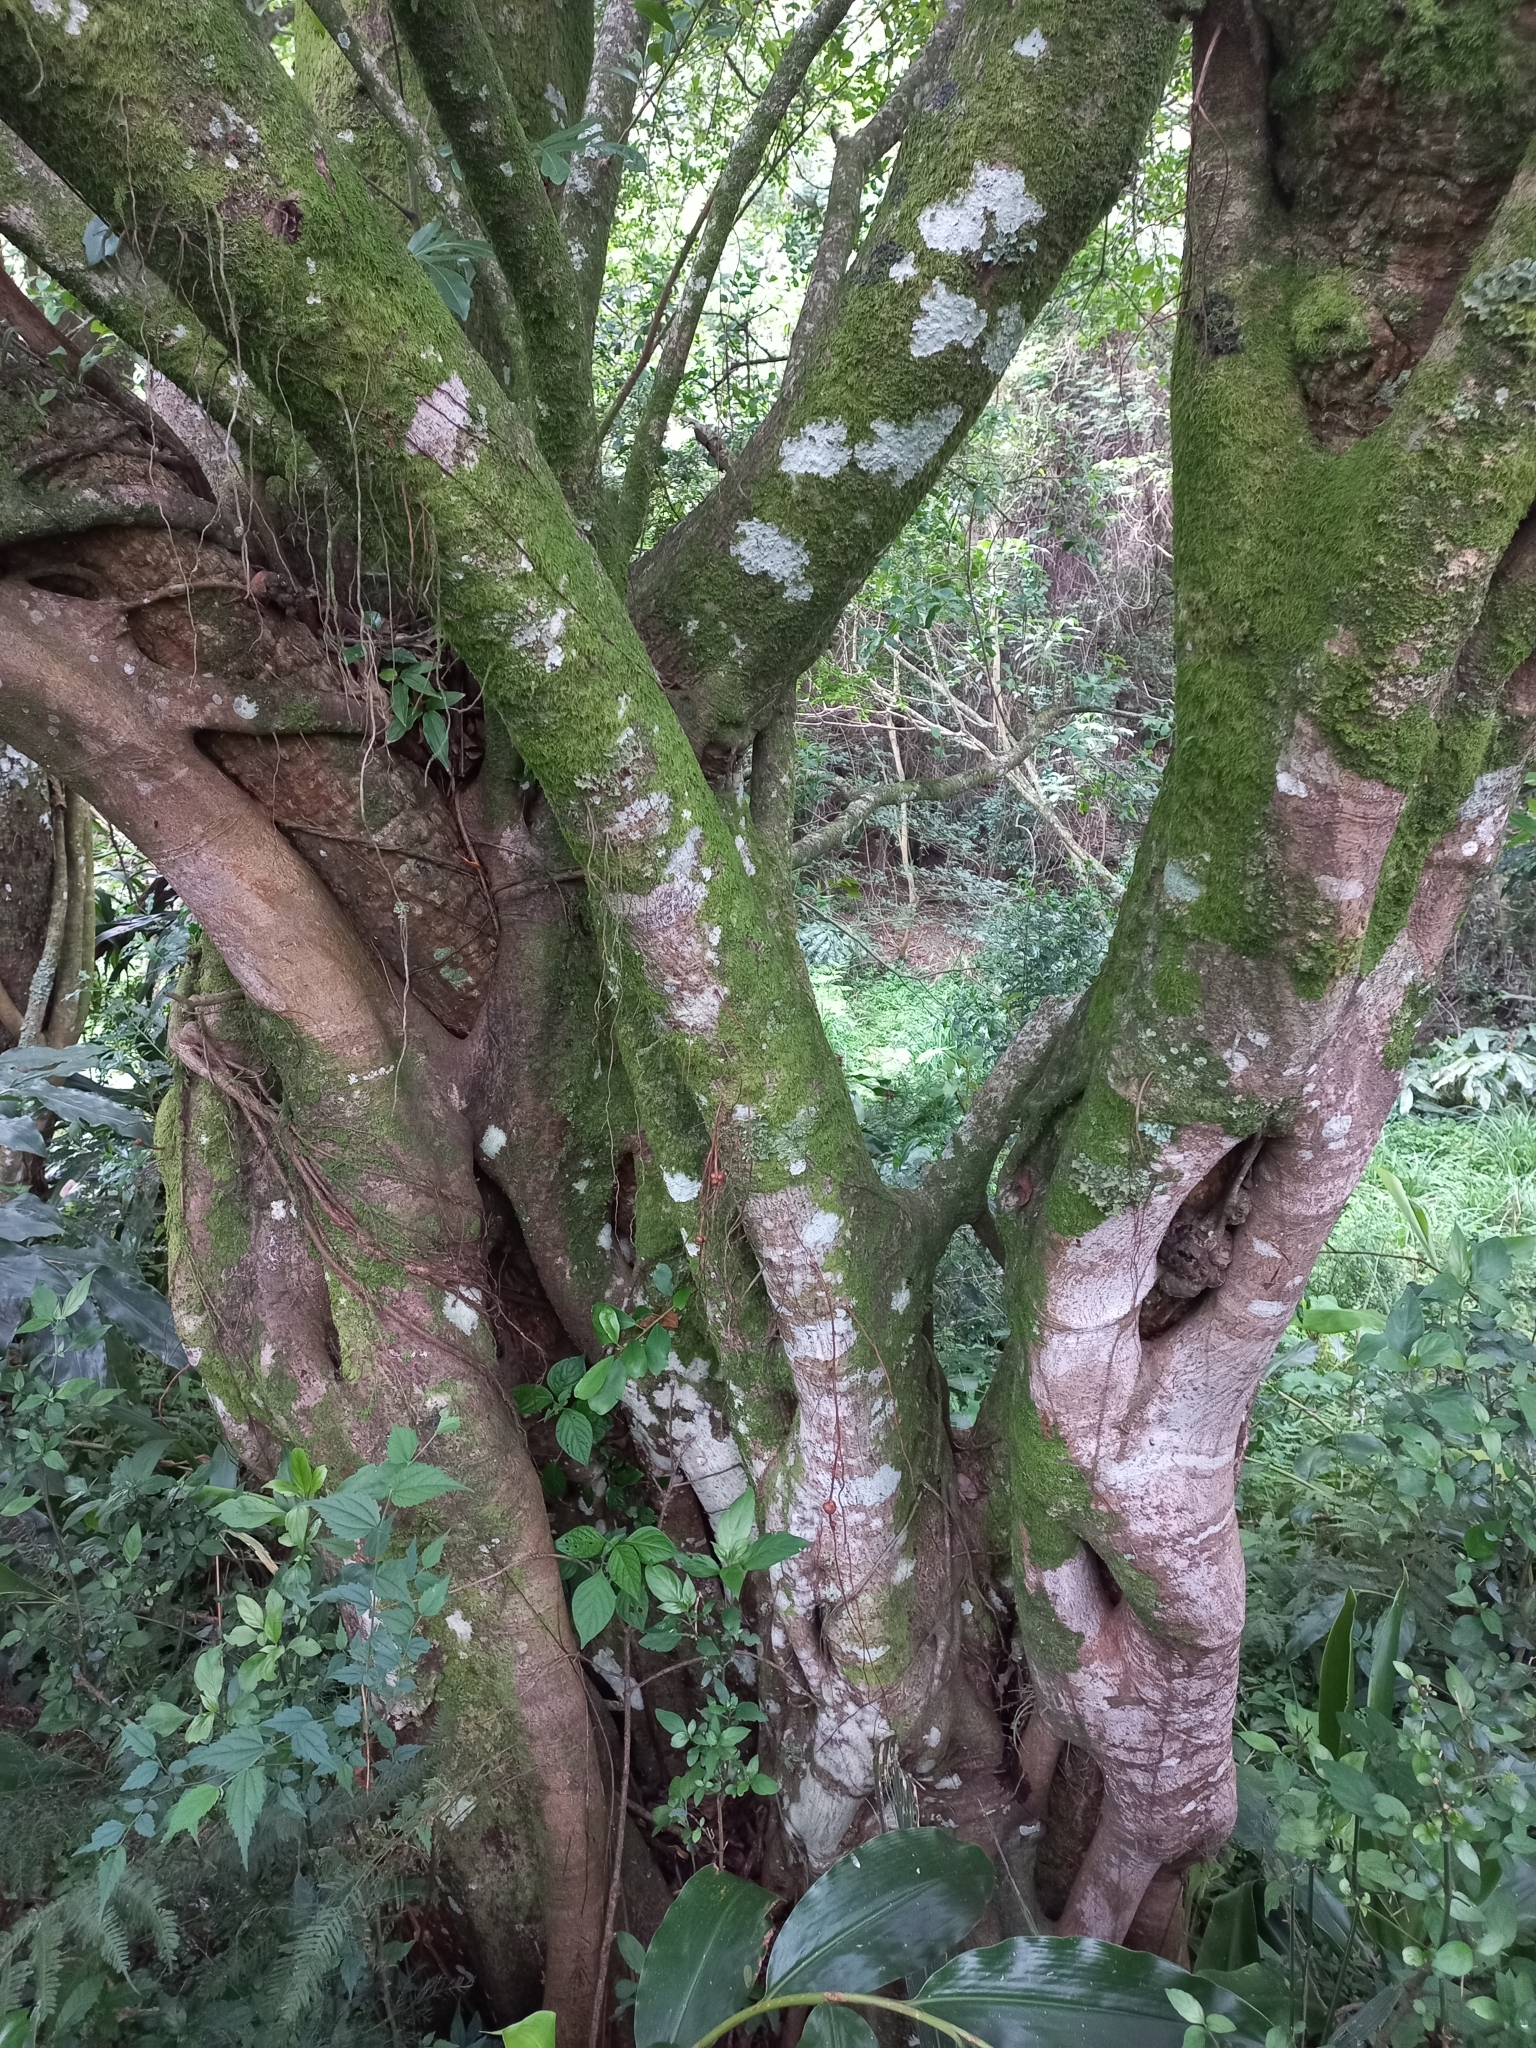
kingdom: Plantae
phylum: Tracheophyta
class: Magnoliopsida
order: Rosales
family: Moraceae
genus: Ficus
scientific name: Ficus thonningii
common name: Fig
